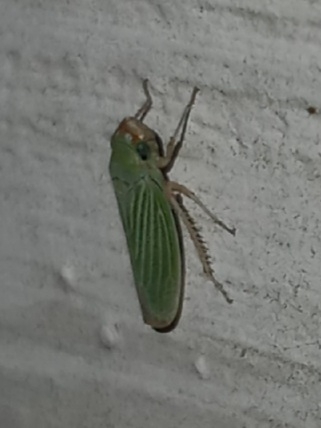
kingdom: Animalia
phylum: Arthropoda
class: Insecta
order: Hemiptera
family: Cicadellidae
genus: Xyphon
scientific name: Xyphon flaviceps
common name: Yellowheaded leafhopper
